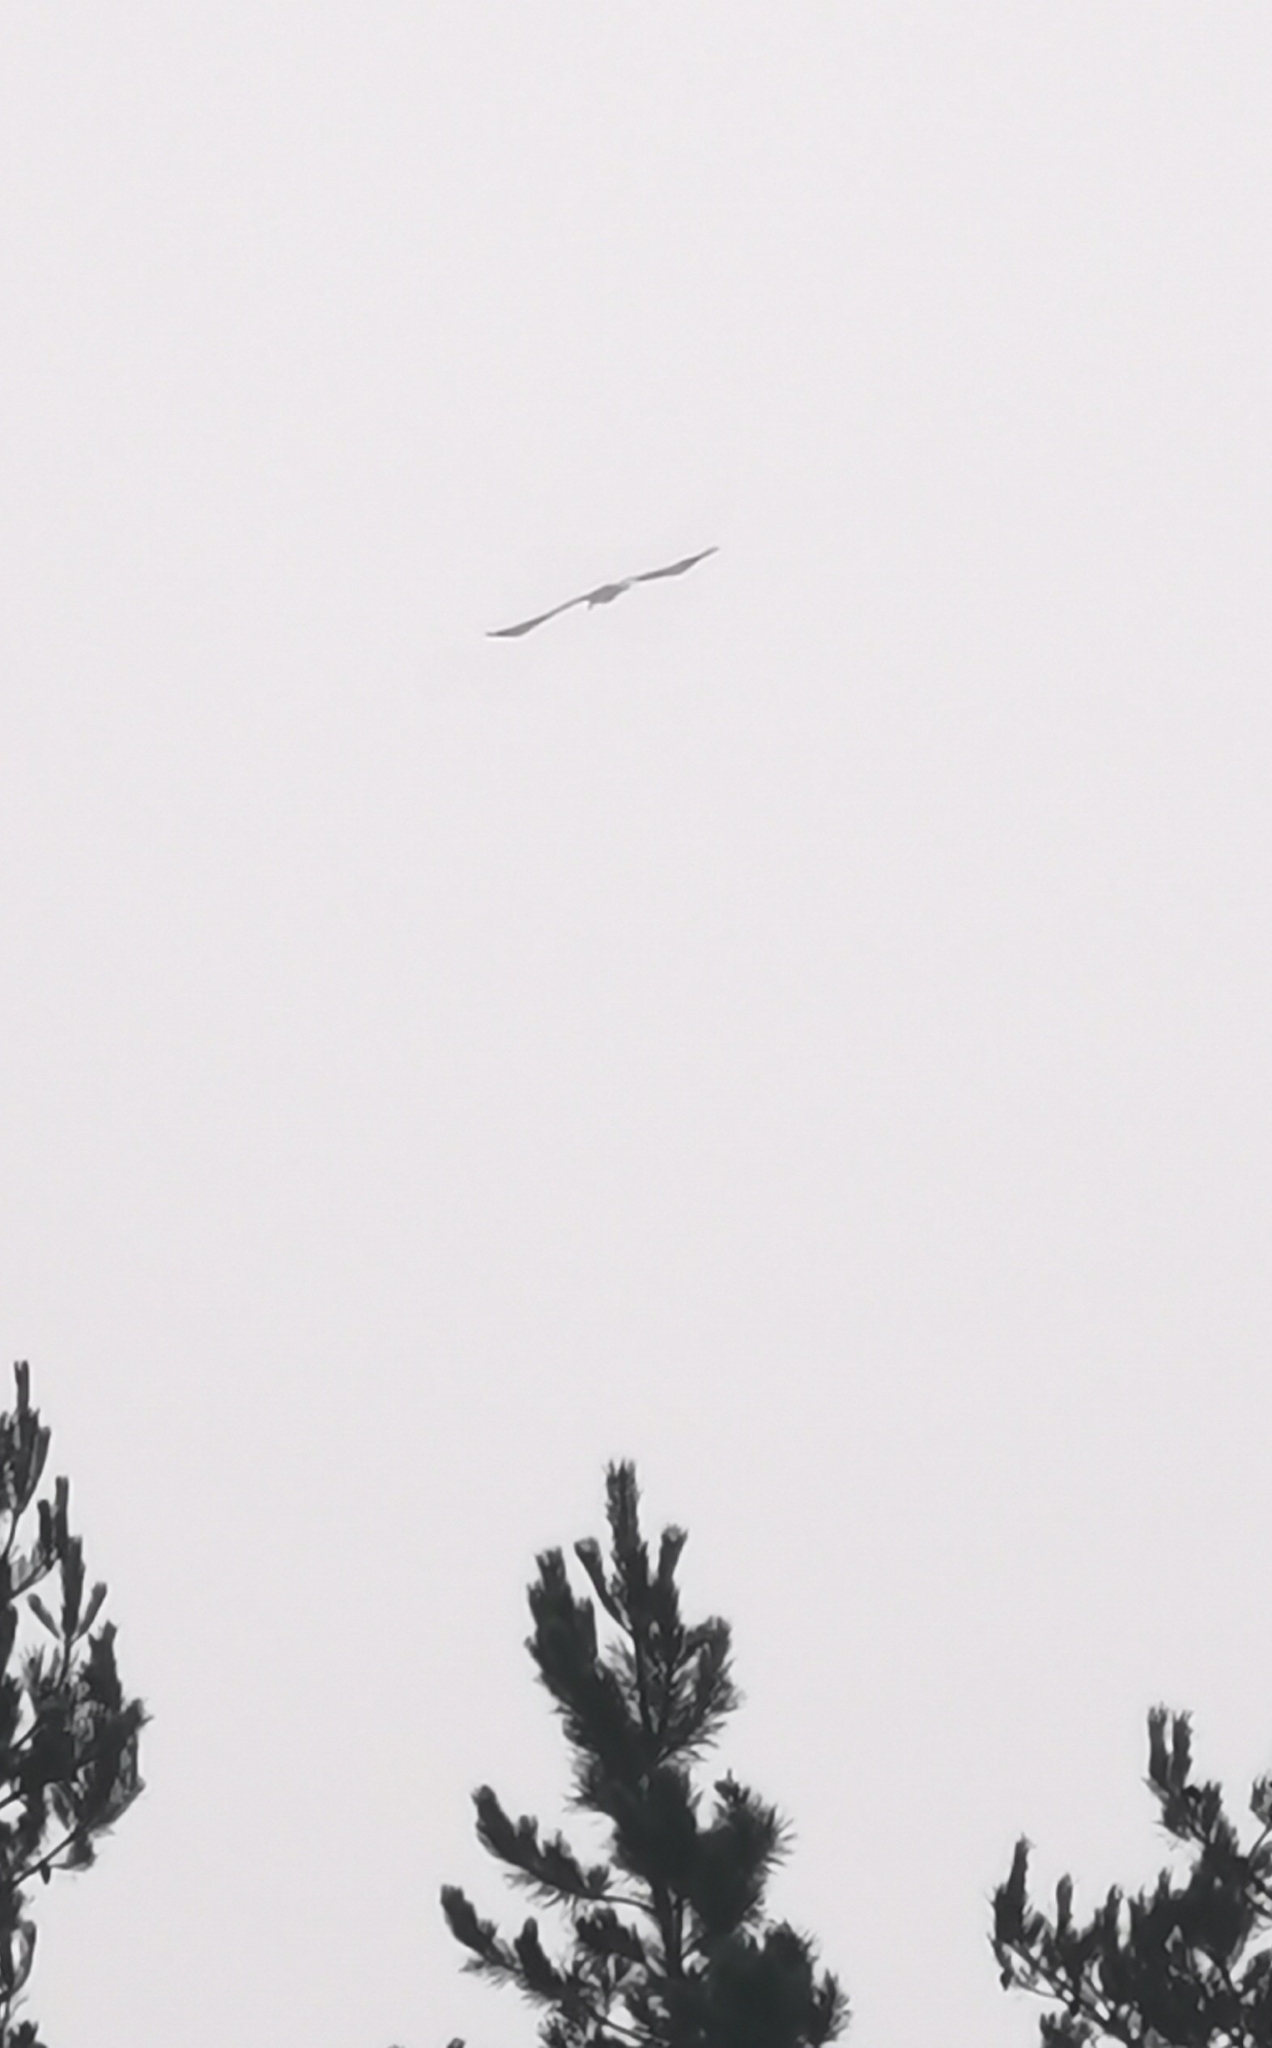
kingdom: Animalia
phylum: Chordata
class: Aves
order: Accipitriformes
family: Accipitridae
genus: Haliaeetus
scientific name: Haliaeetus albicilla
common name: White-tailed eagle
